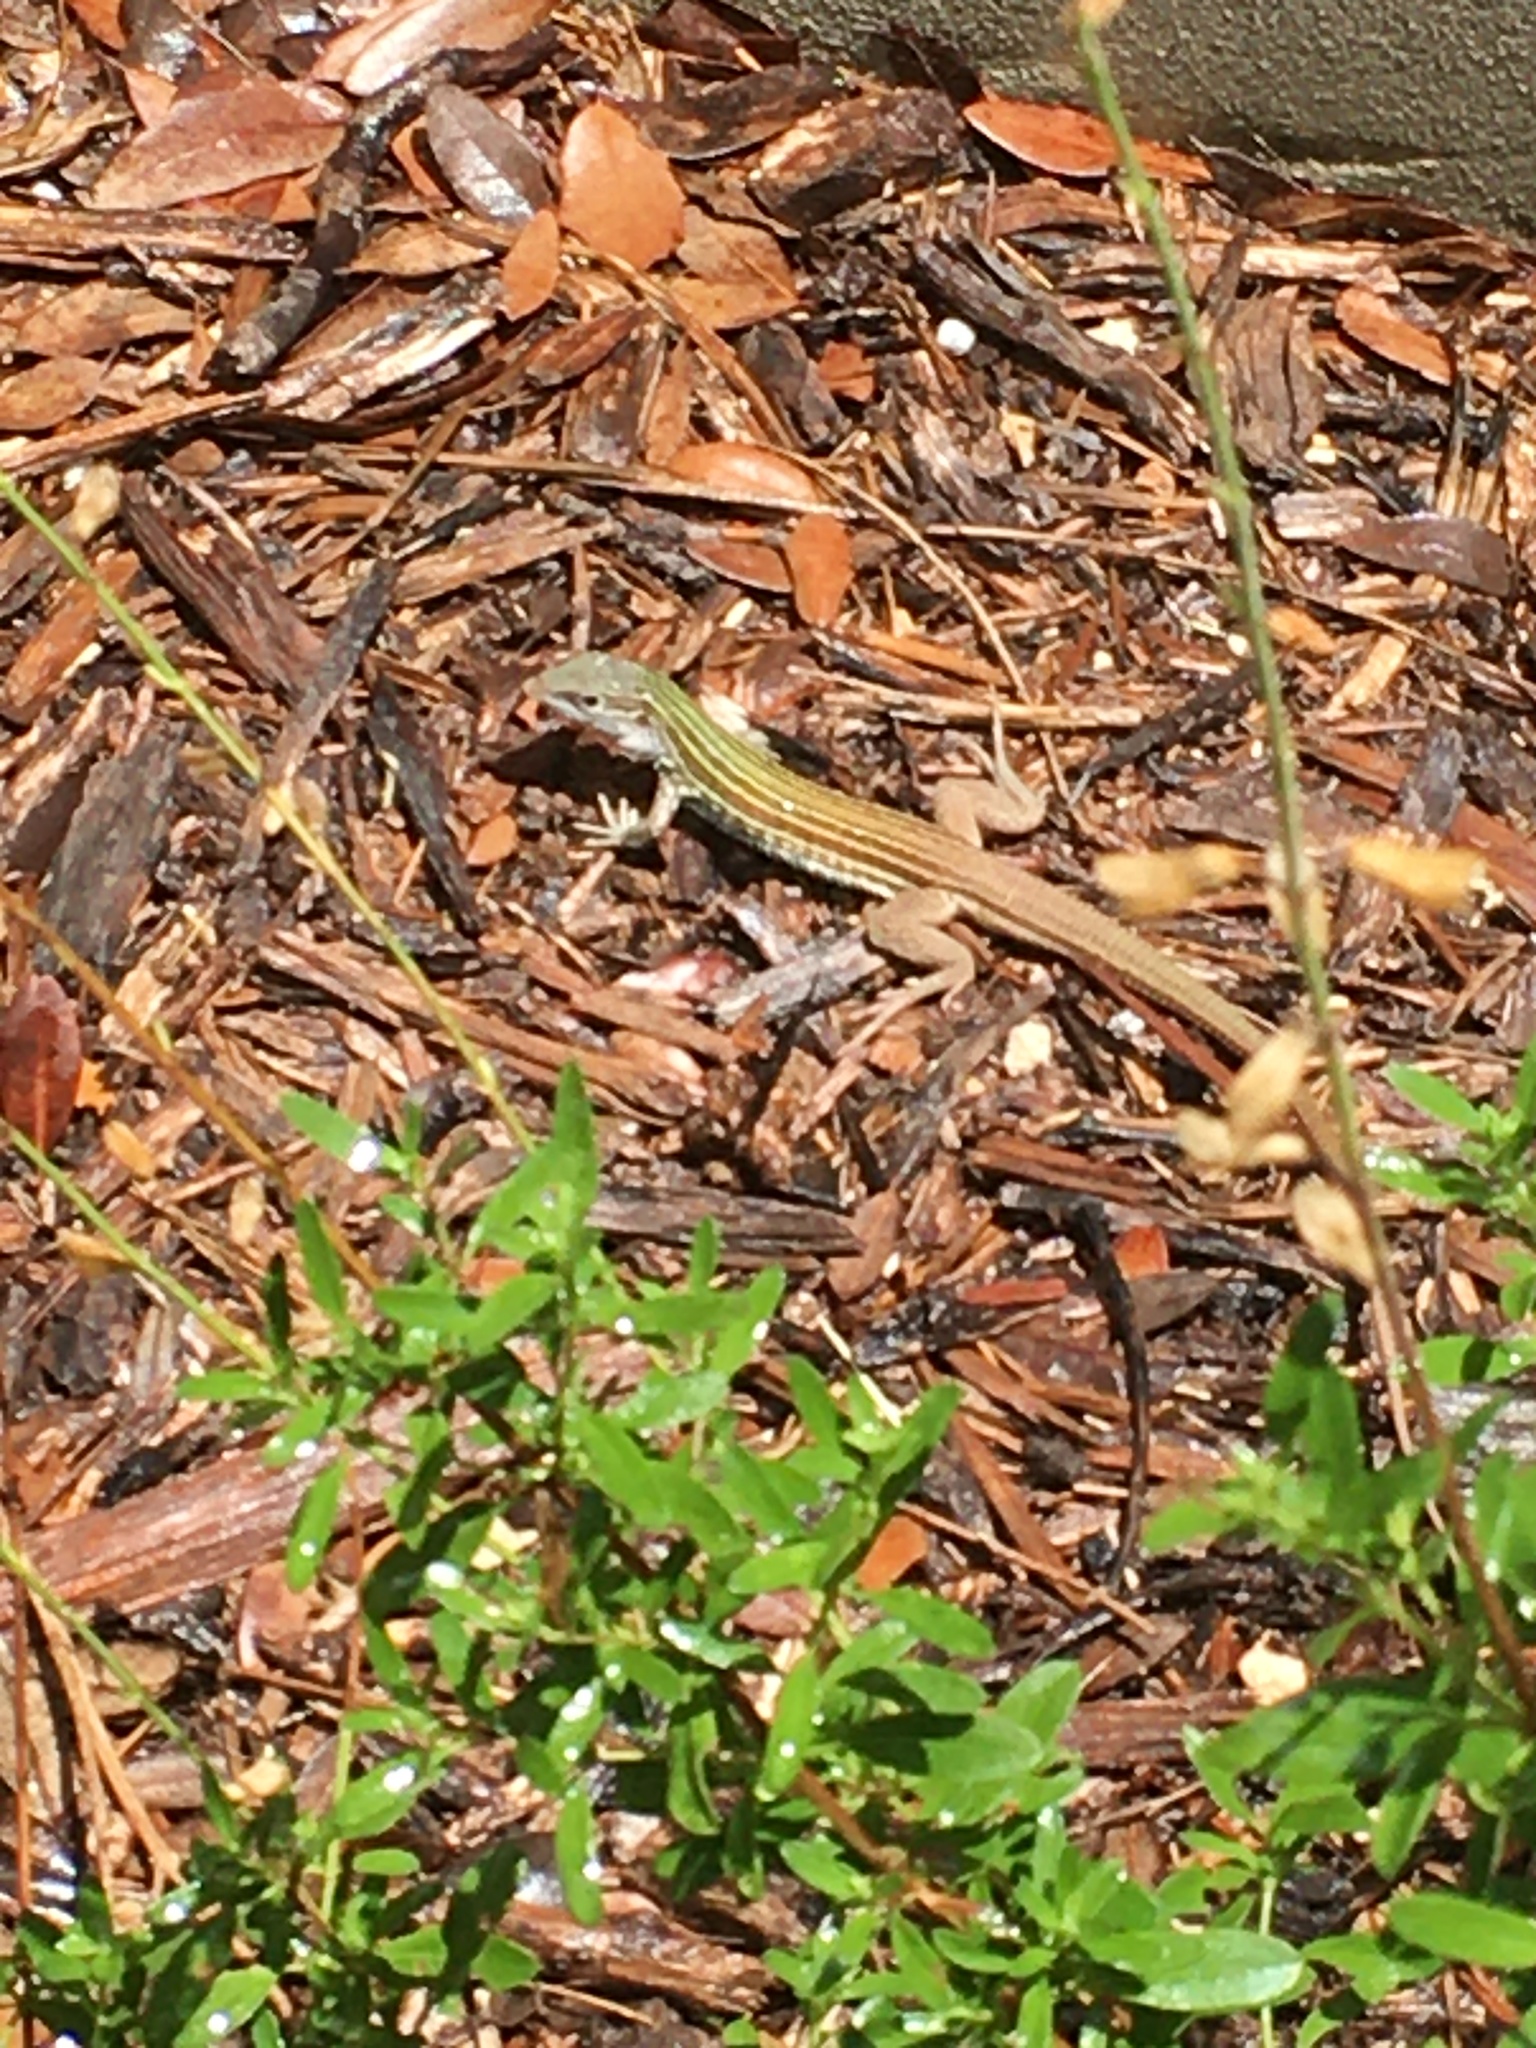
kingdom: Animalia
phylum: Chordata
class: Squamata
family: Teiidae
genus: Aspidoscelis
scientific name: Aspidoscelis gularis
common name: Eastern spotted whiptail
